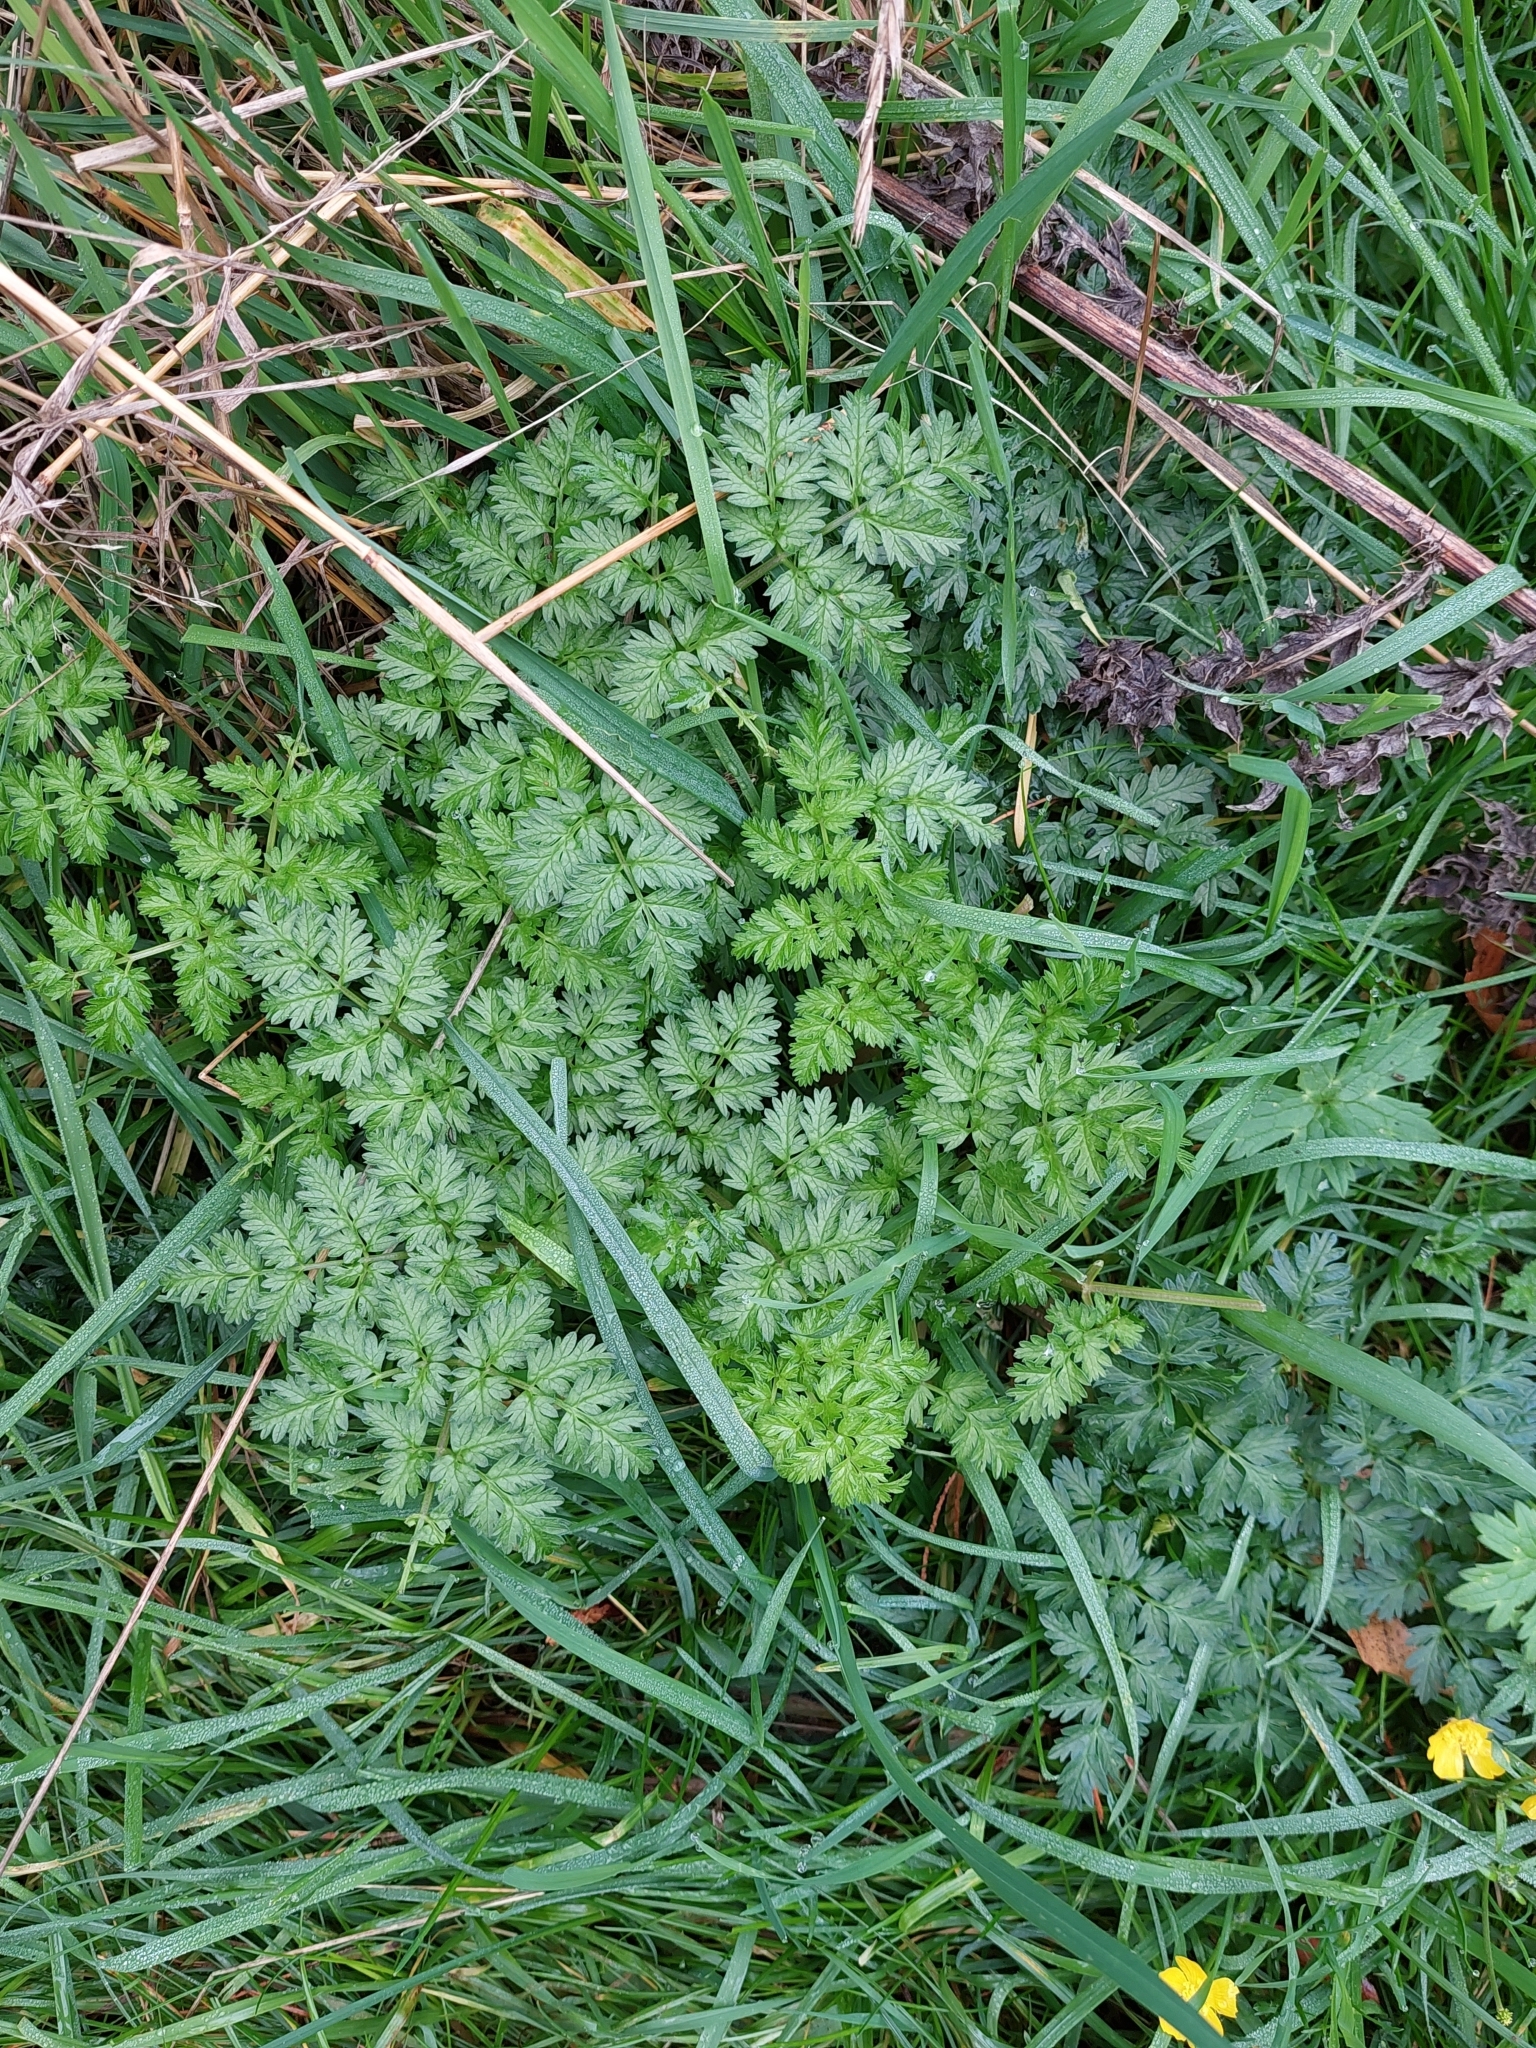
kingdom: Plantae
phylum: Tracheophyta
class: Magnoliopsida
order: Apiales
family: Apiaceae
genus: Anthriscus
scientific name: Anthriscus sylvestris
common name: Cow parsley
